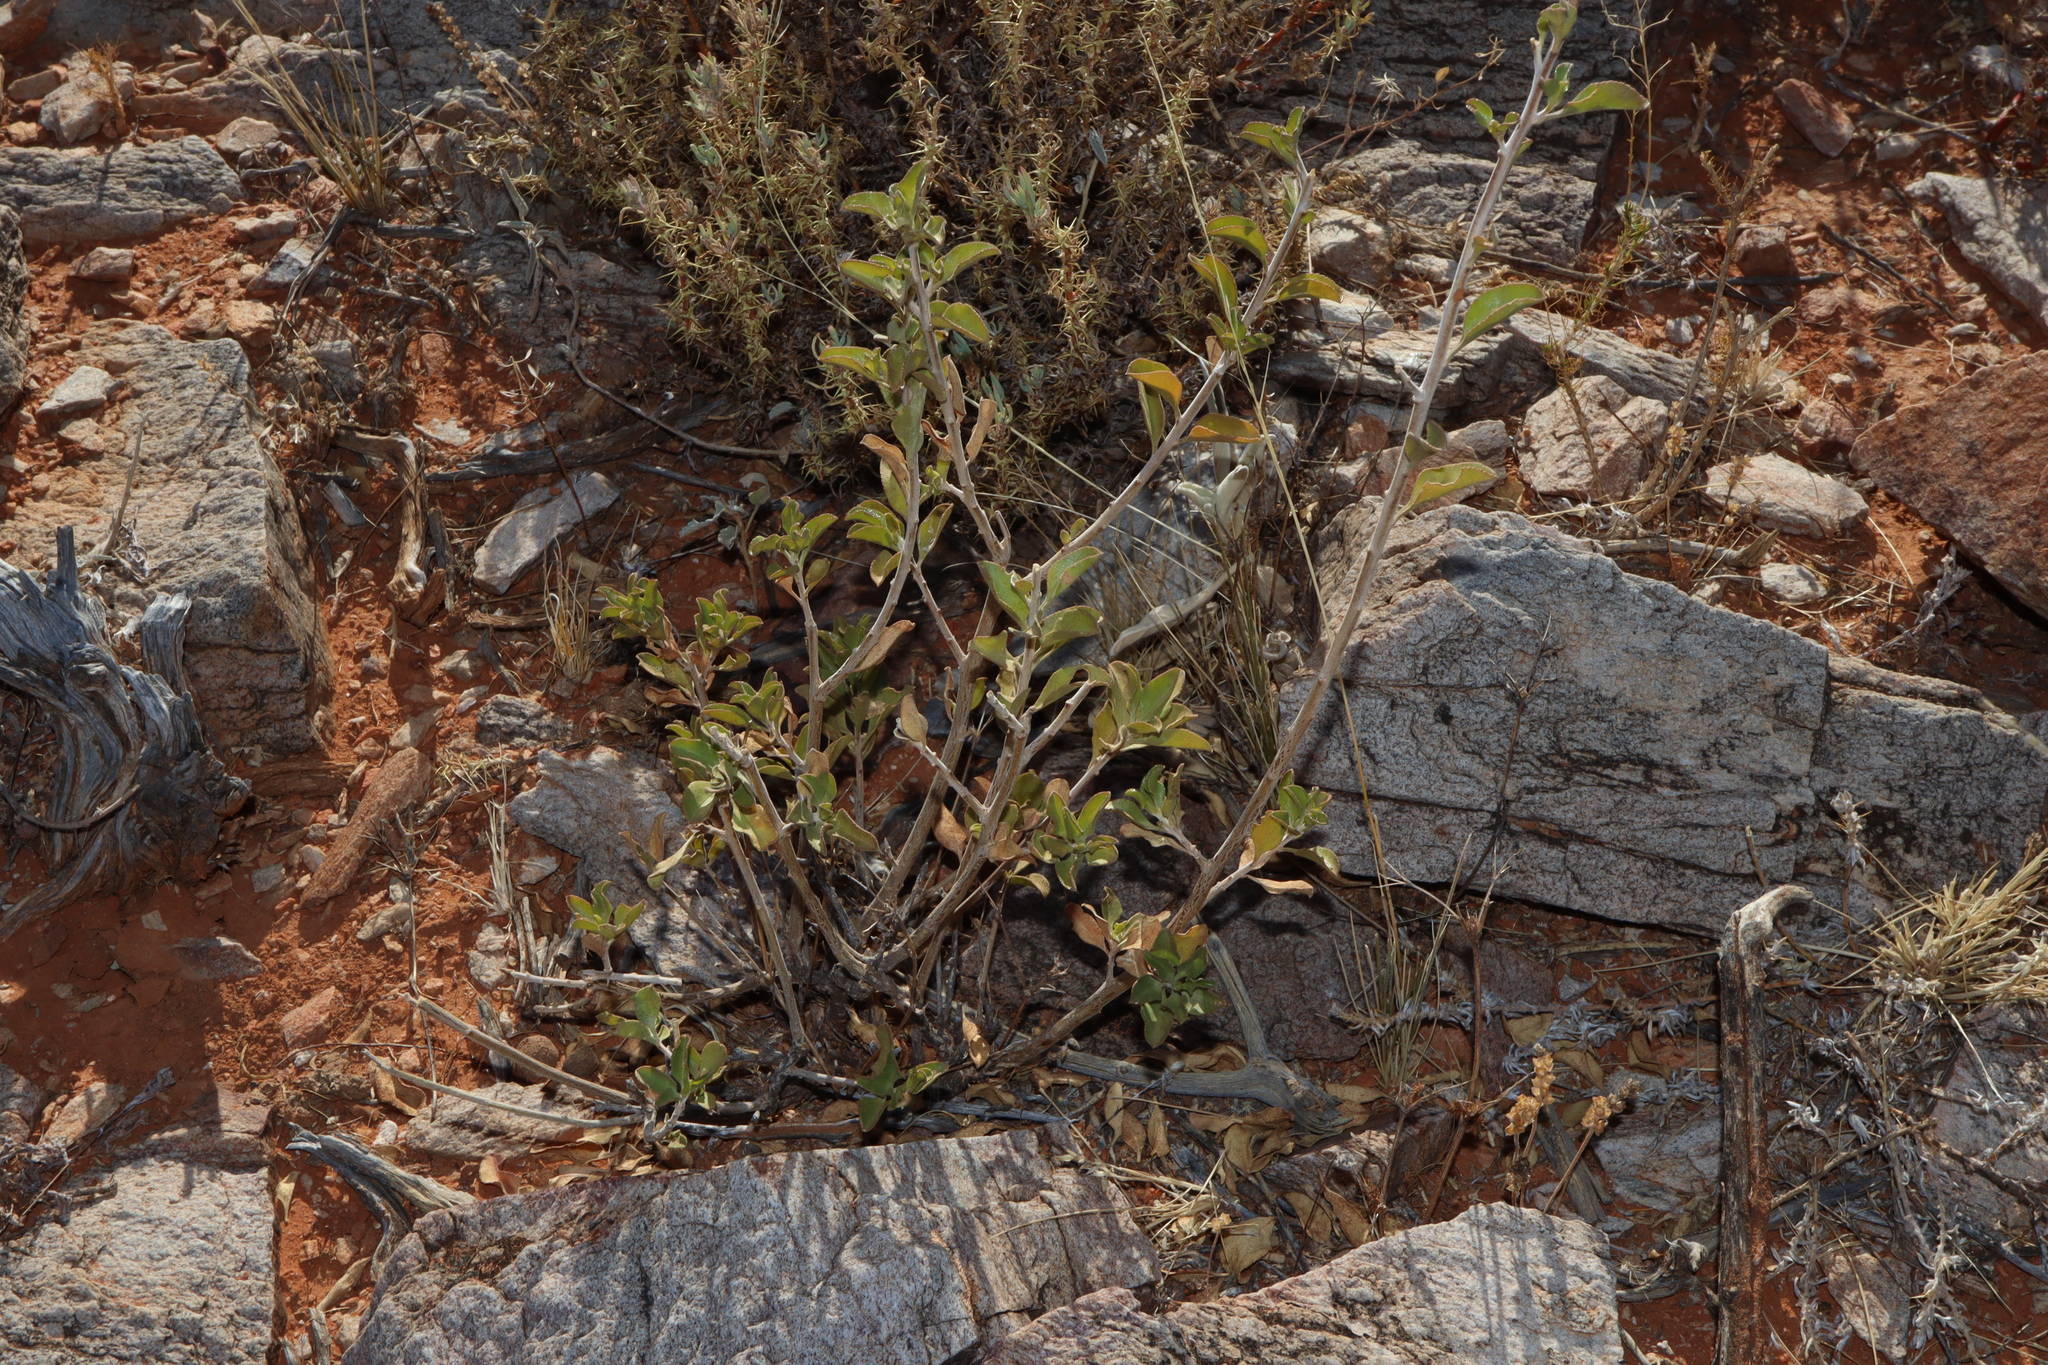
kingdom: Plantae
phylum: Tracheophyta
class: Magnoliopsida
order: Lamiales
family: Scrophulariaceae
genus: Eremophila
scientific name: Eremophila serrulata
